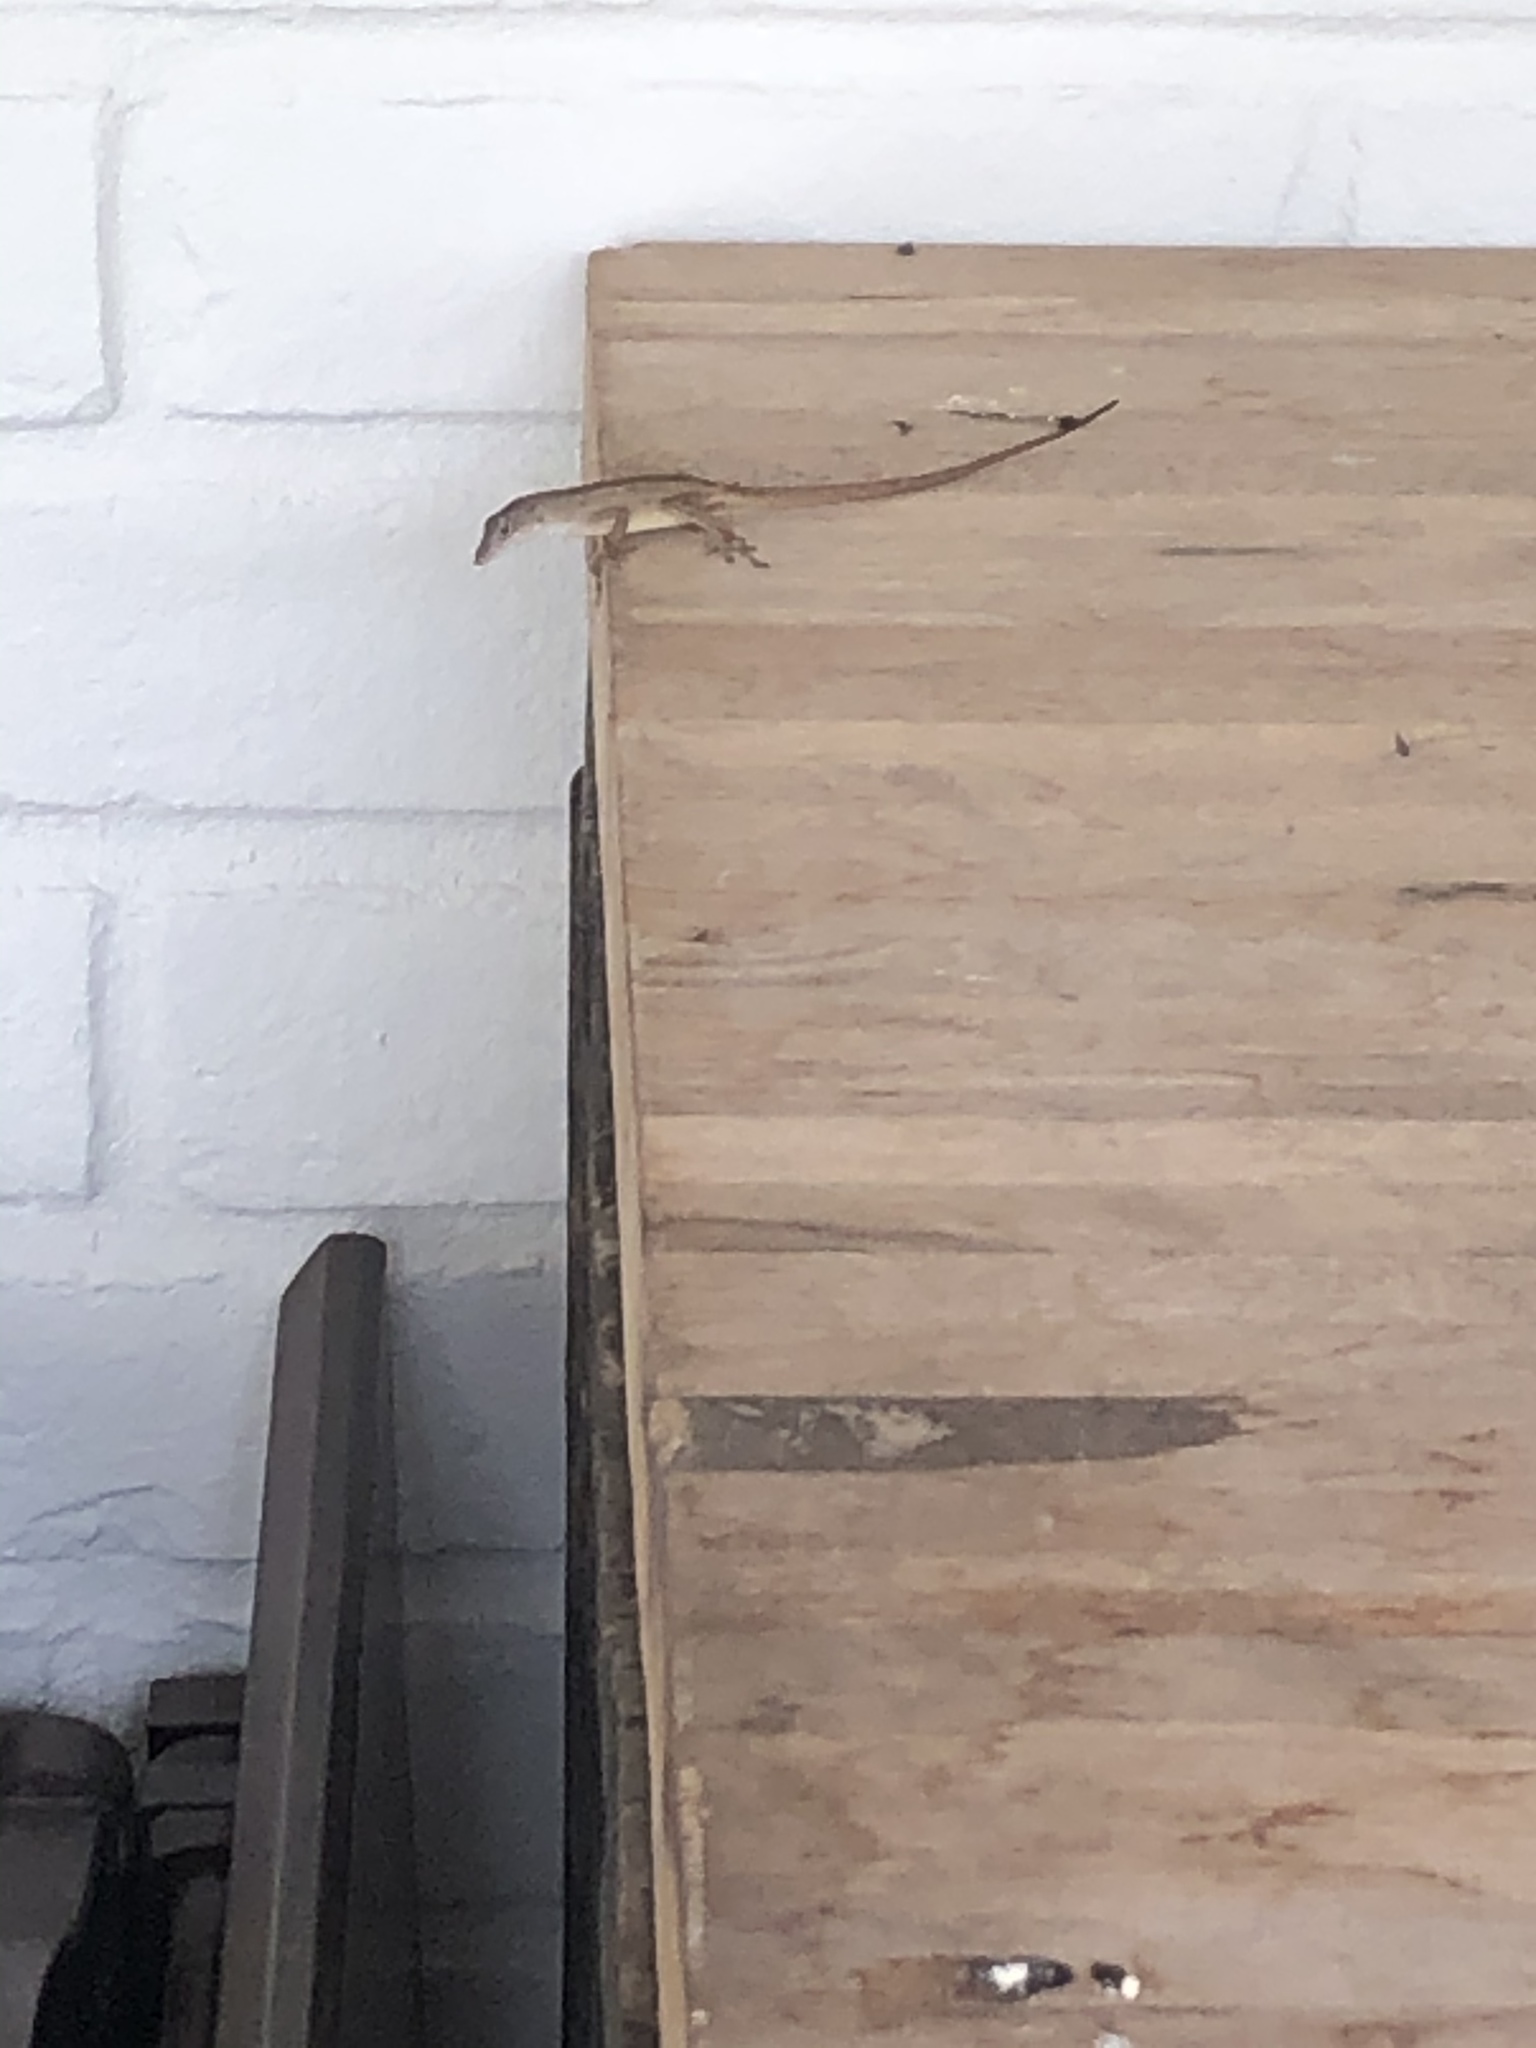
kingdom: Animalia
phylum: Chordata
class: Squamata
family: Dactyloidae
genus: Anolis
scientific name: Anolis sagrei
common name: Brown anole
